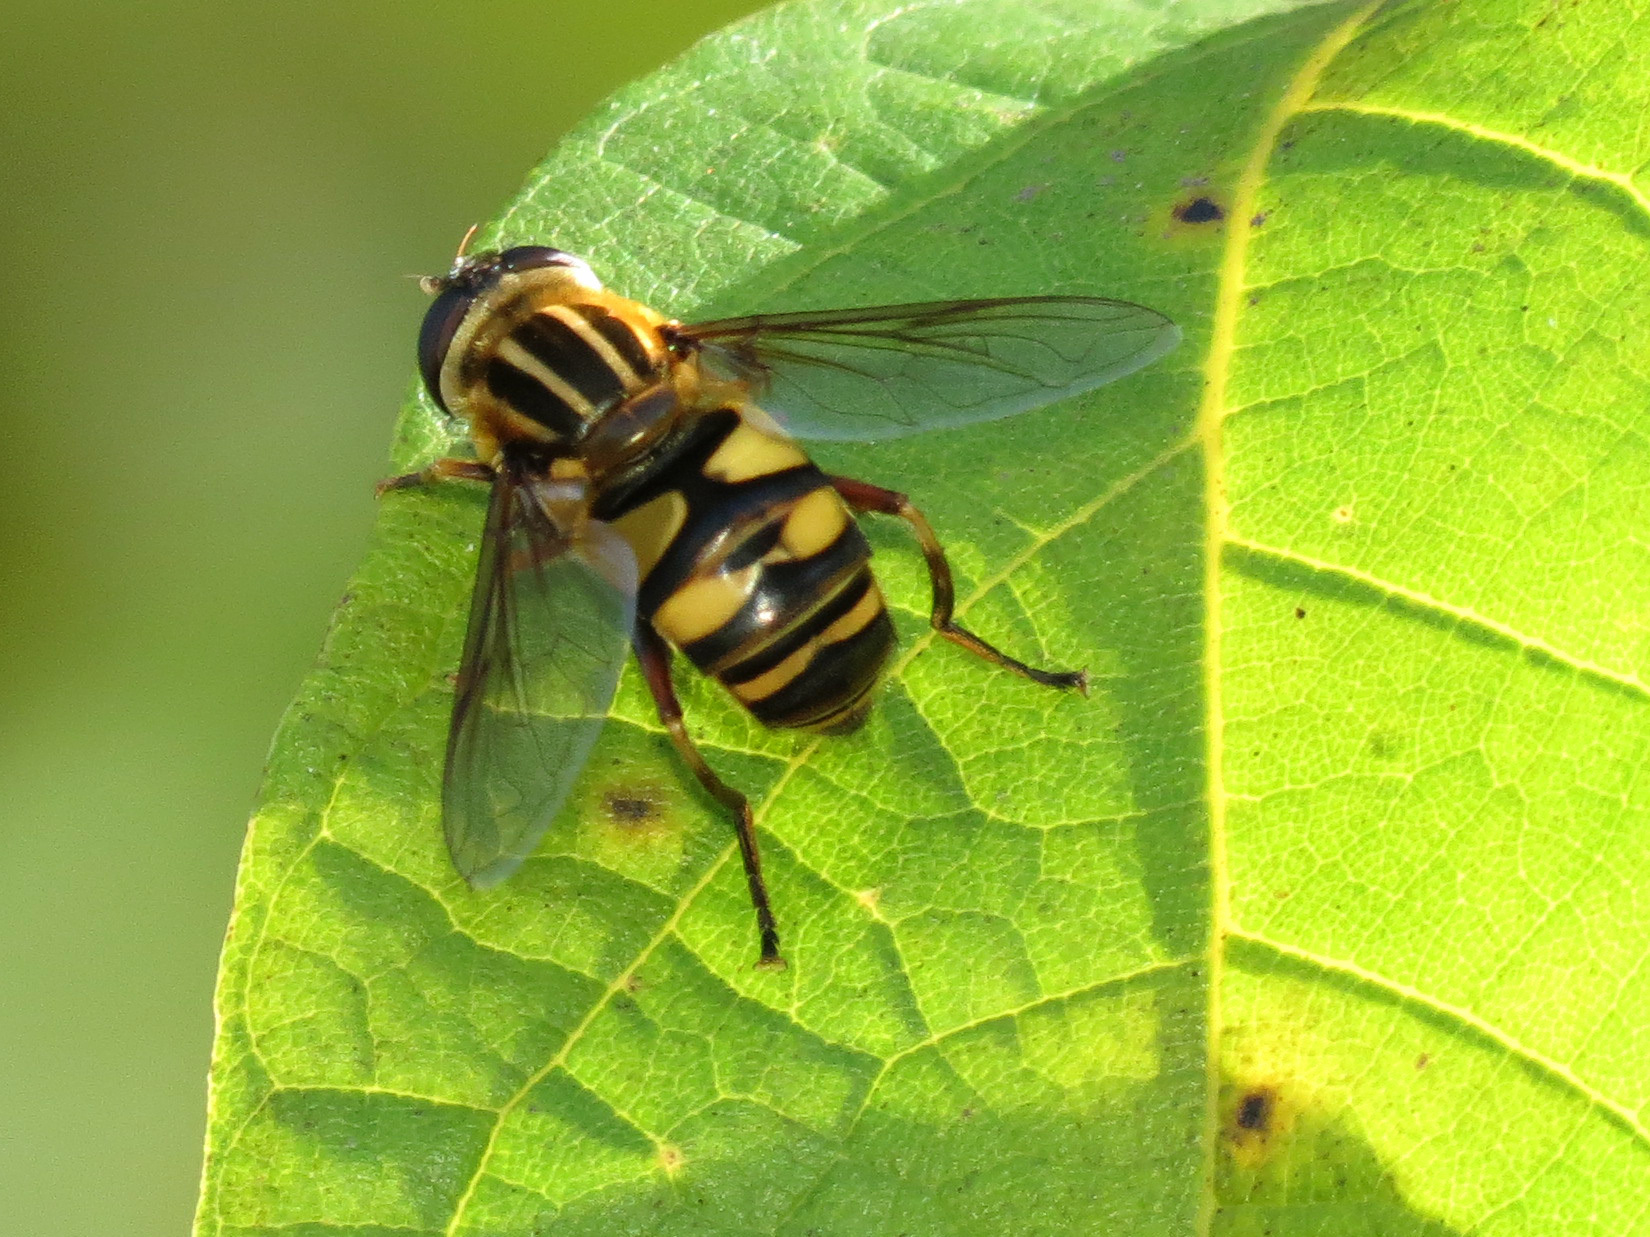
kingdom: Animalia
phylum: Arthropoda
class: Insecta
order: Diptera
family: Syrphidae
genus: Helophilus
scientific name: Helophilus fasciatus
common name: Narrow-headed marsh fly
